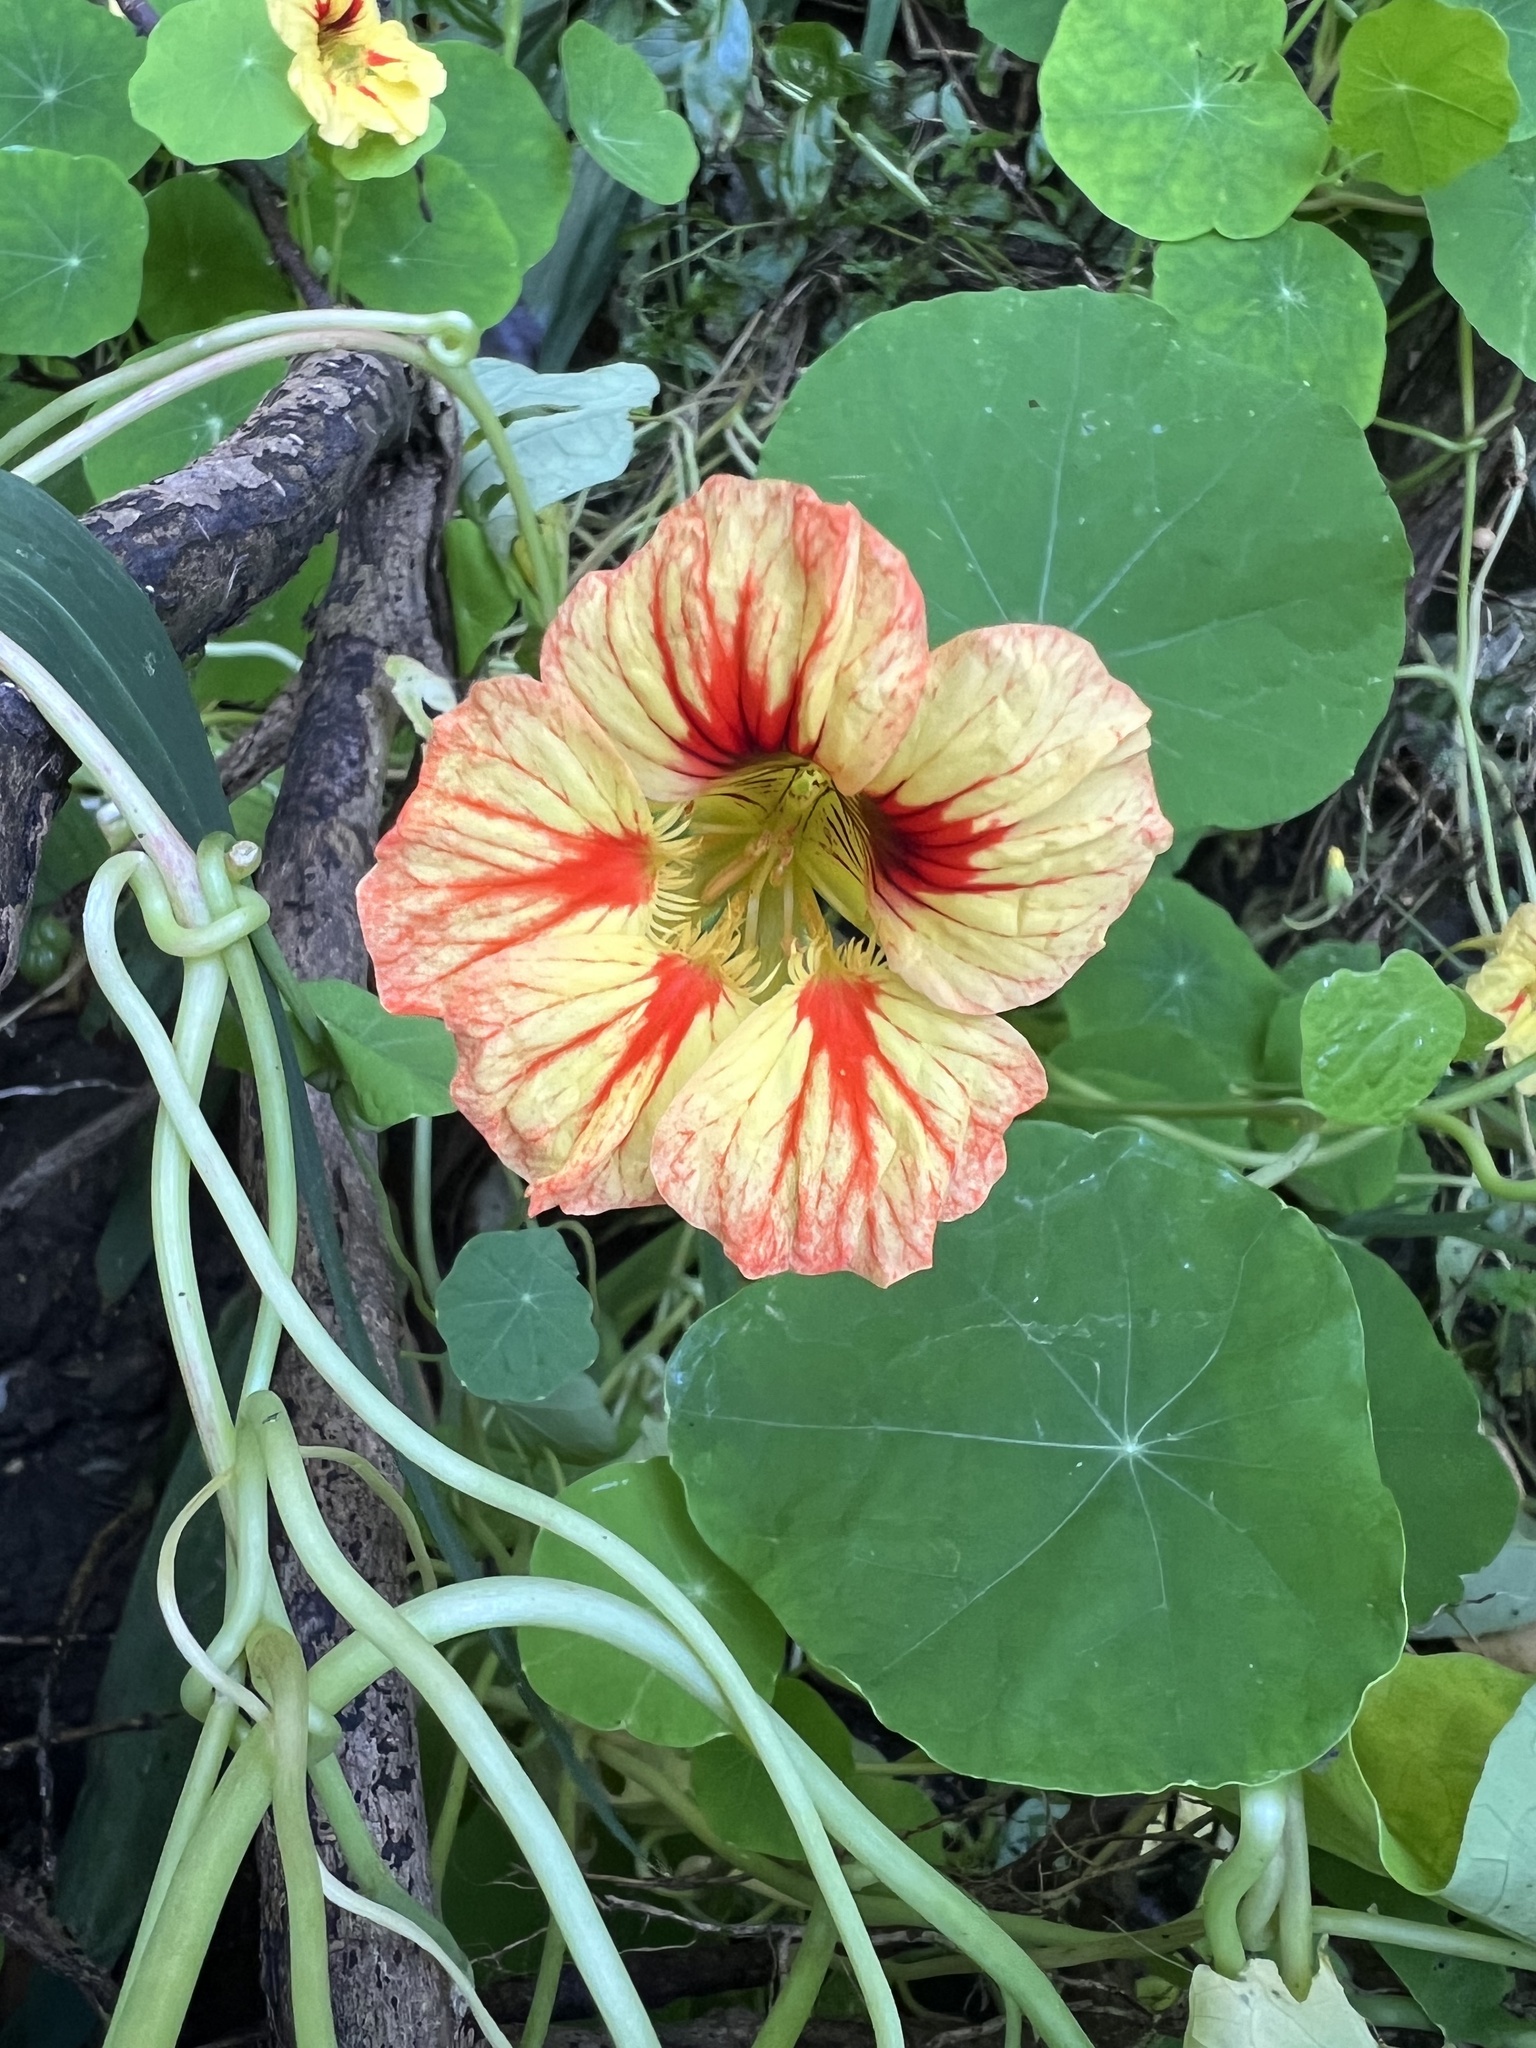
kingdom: Plantae
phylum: Tracheophyta
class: Magnoliopsida
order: Brassicales
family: Tropaeolaceae
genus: Tropaeolum
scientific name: Tropaeolum majus
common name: Nasturtium
